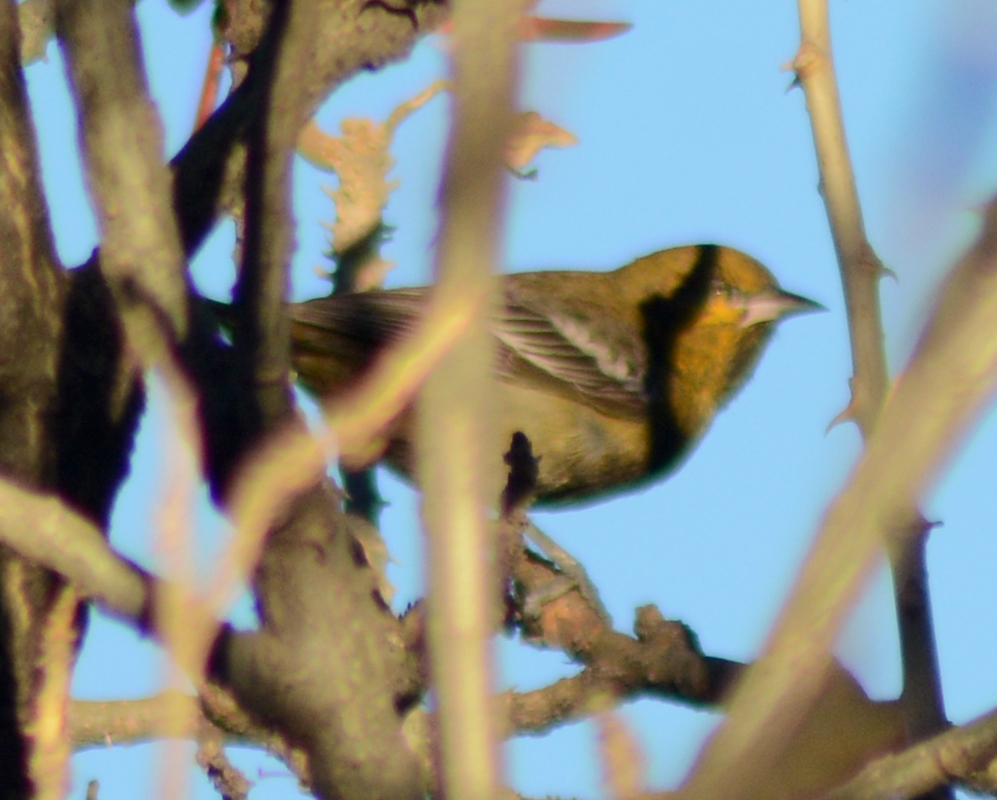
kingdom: Animalia
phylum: Chordata
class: Aves
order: Passeriformes
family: Icteridae
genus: Icterus
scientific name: Icterus abeillei
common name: Black-backed oriole
